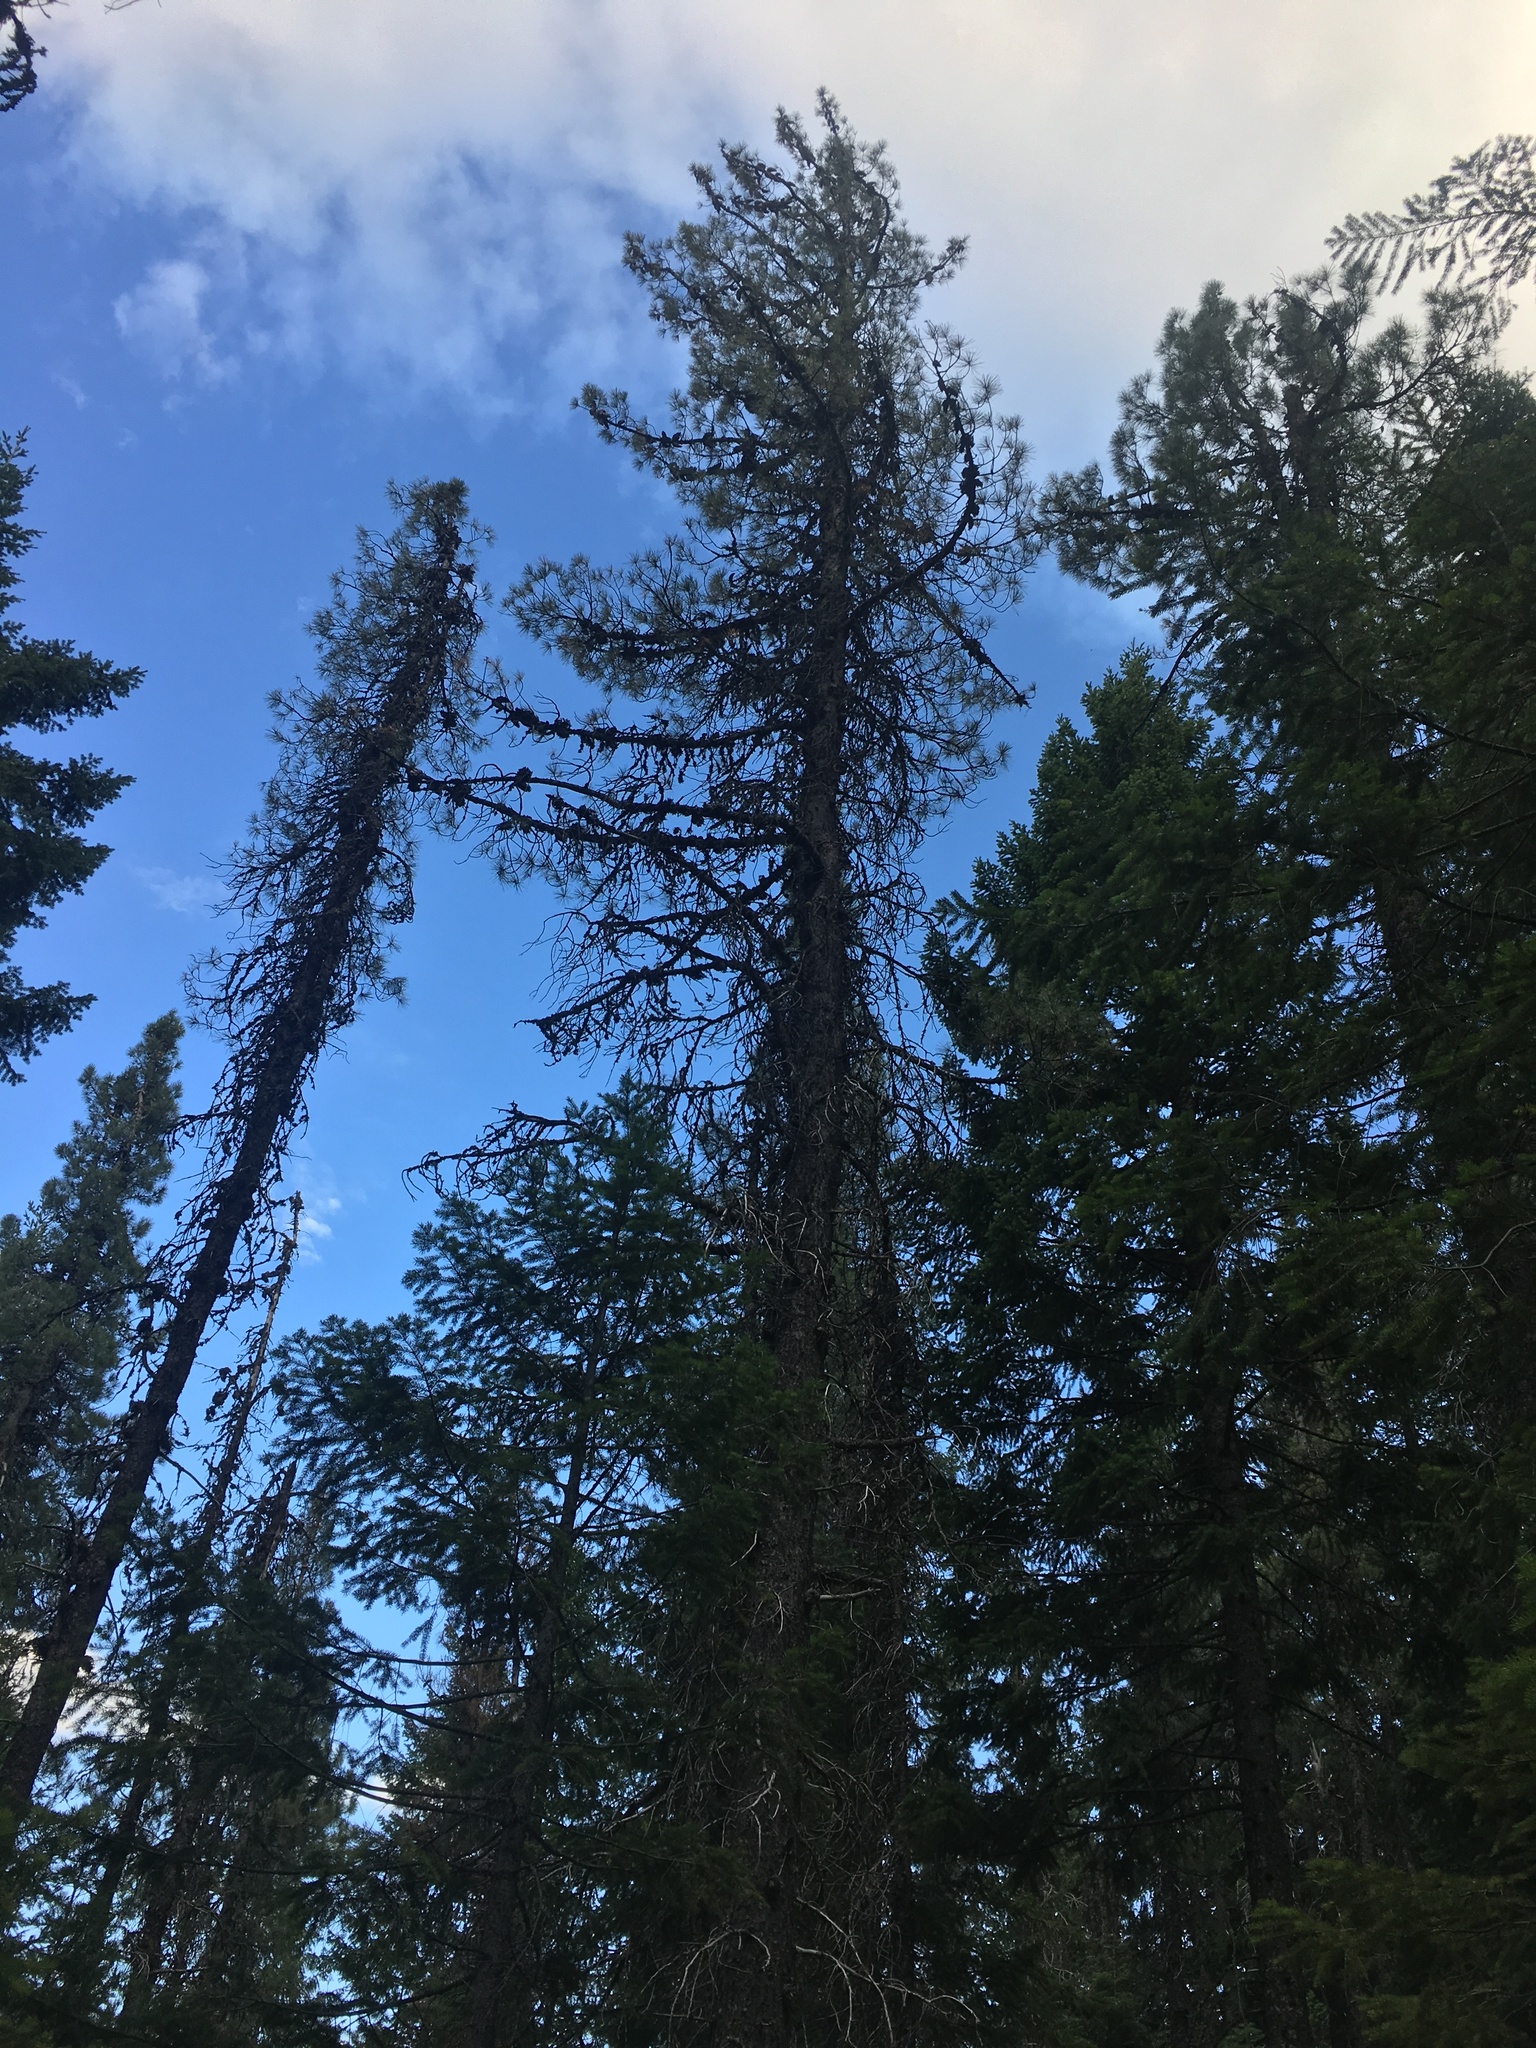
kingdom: Plantae
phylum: Tracheophyta
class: Pinopsida
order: Pinales
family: Pinaceae
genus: Pinus
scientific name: Pinus attenuata
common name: Knobcone pine
